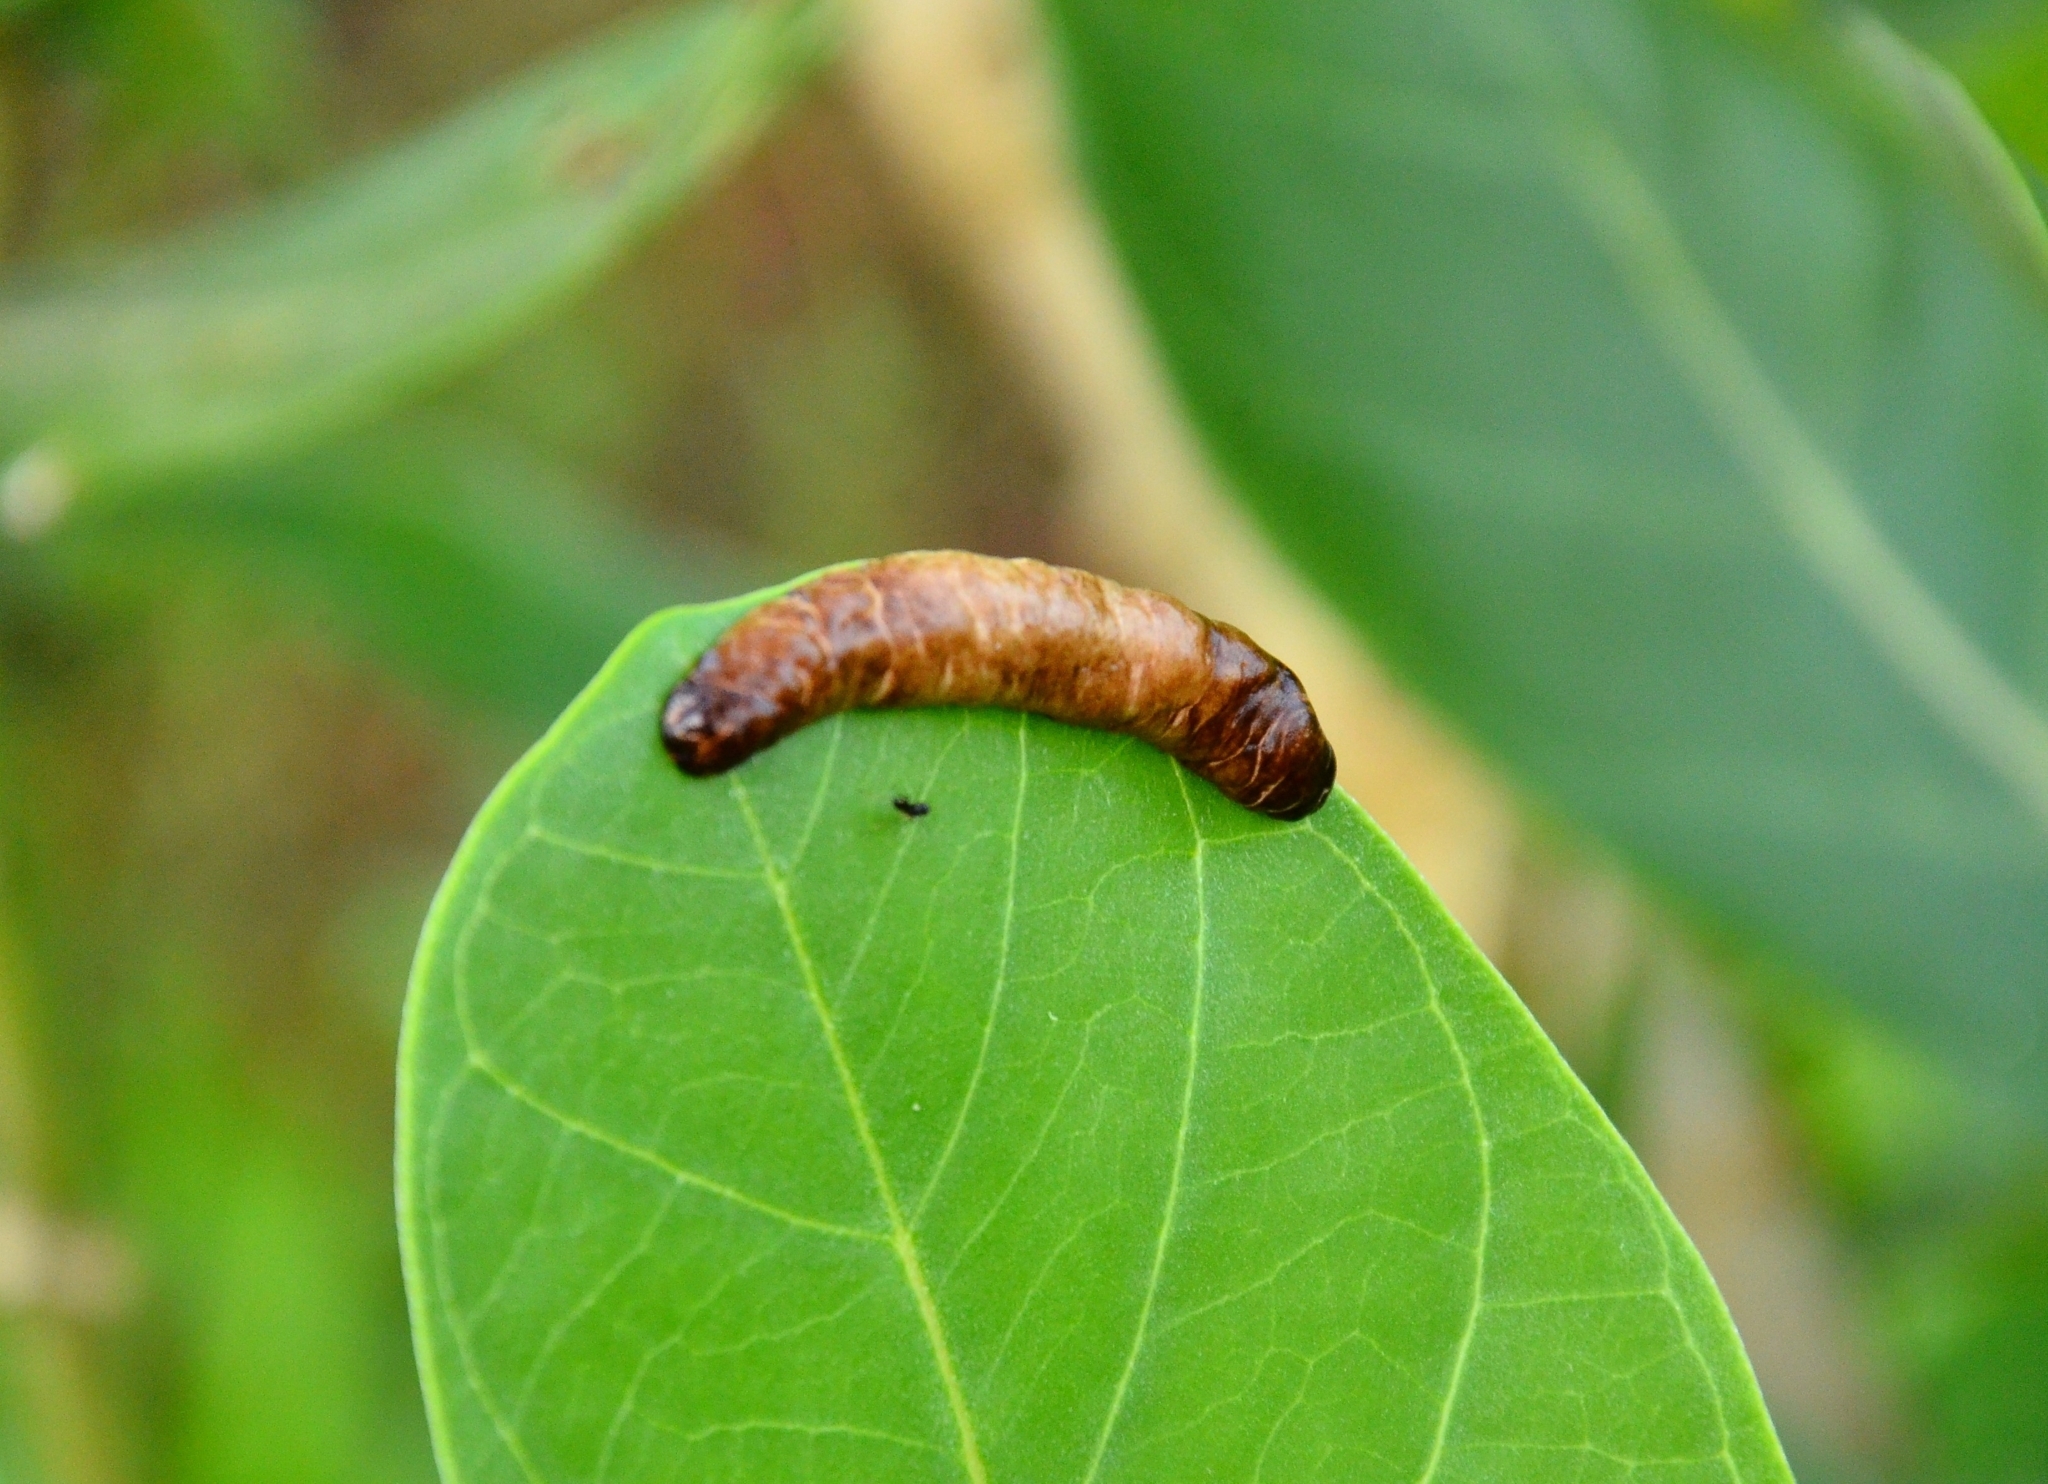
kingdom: Animalia
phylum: Mollusca
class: Gastropoda
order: Systellommatophora
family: Veronicellidae
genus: Laevicaulis
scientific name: Laevicaulis haroldi
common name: Caterpillar slug
